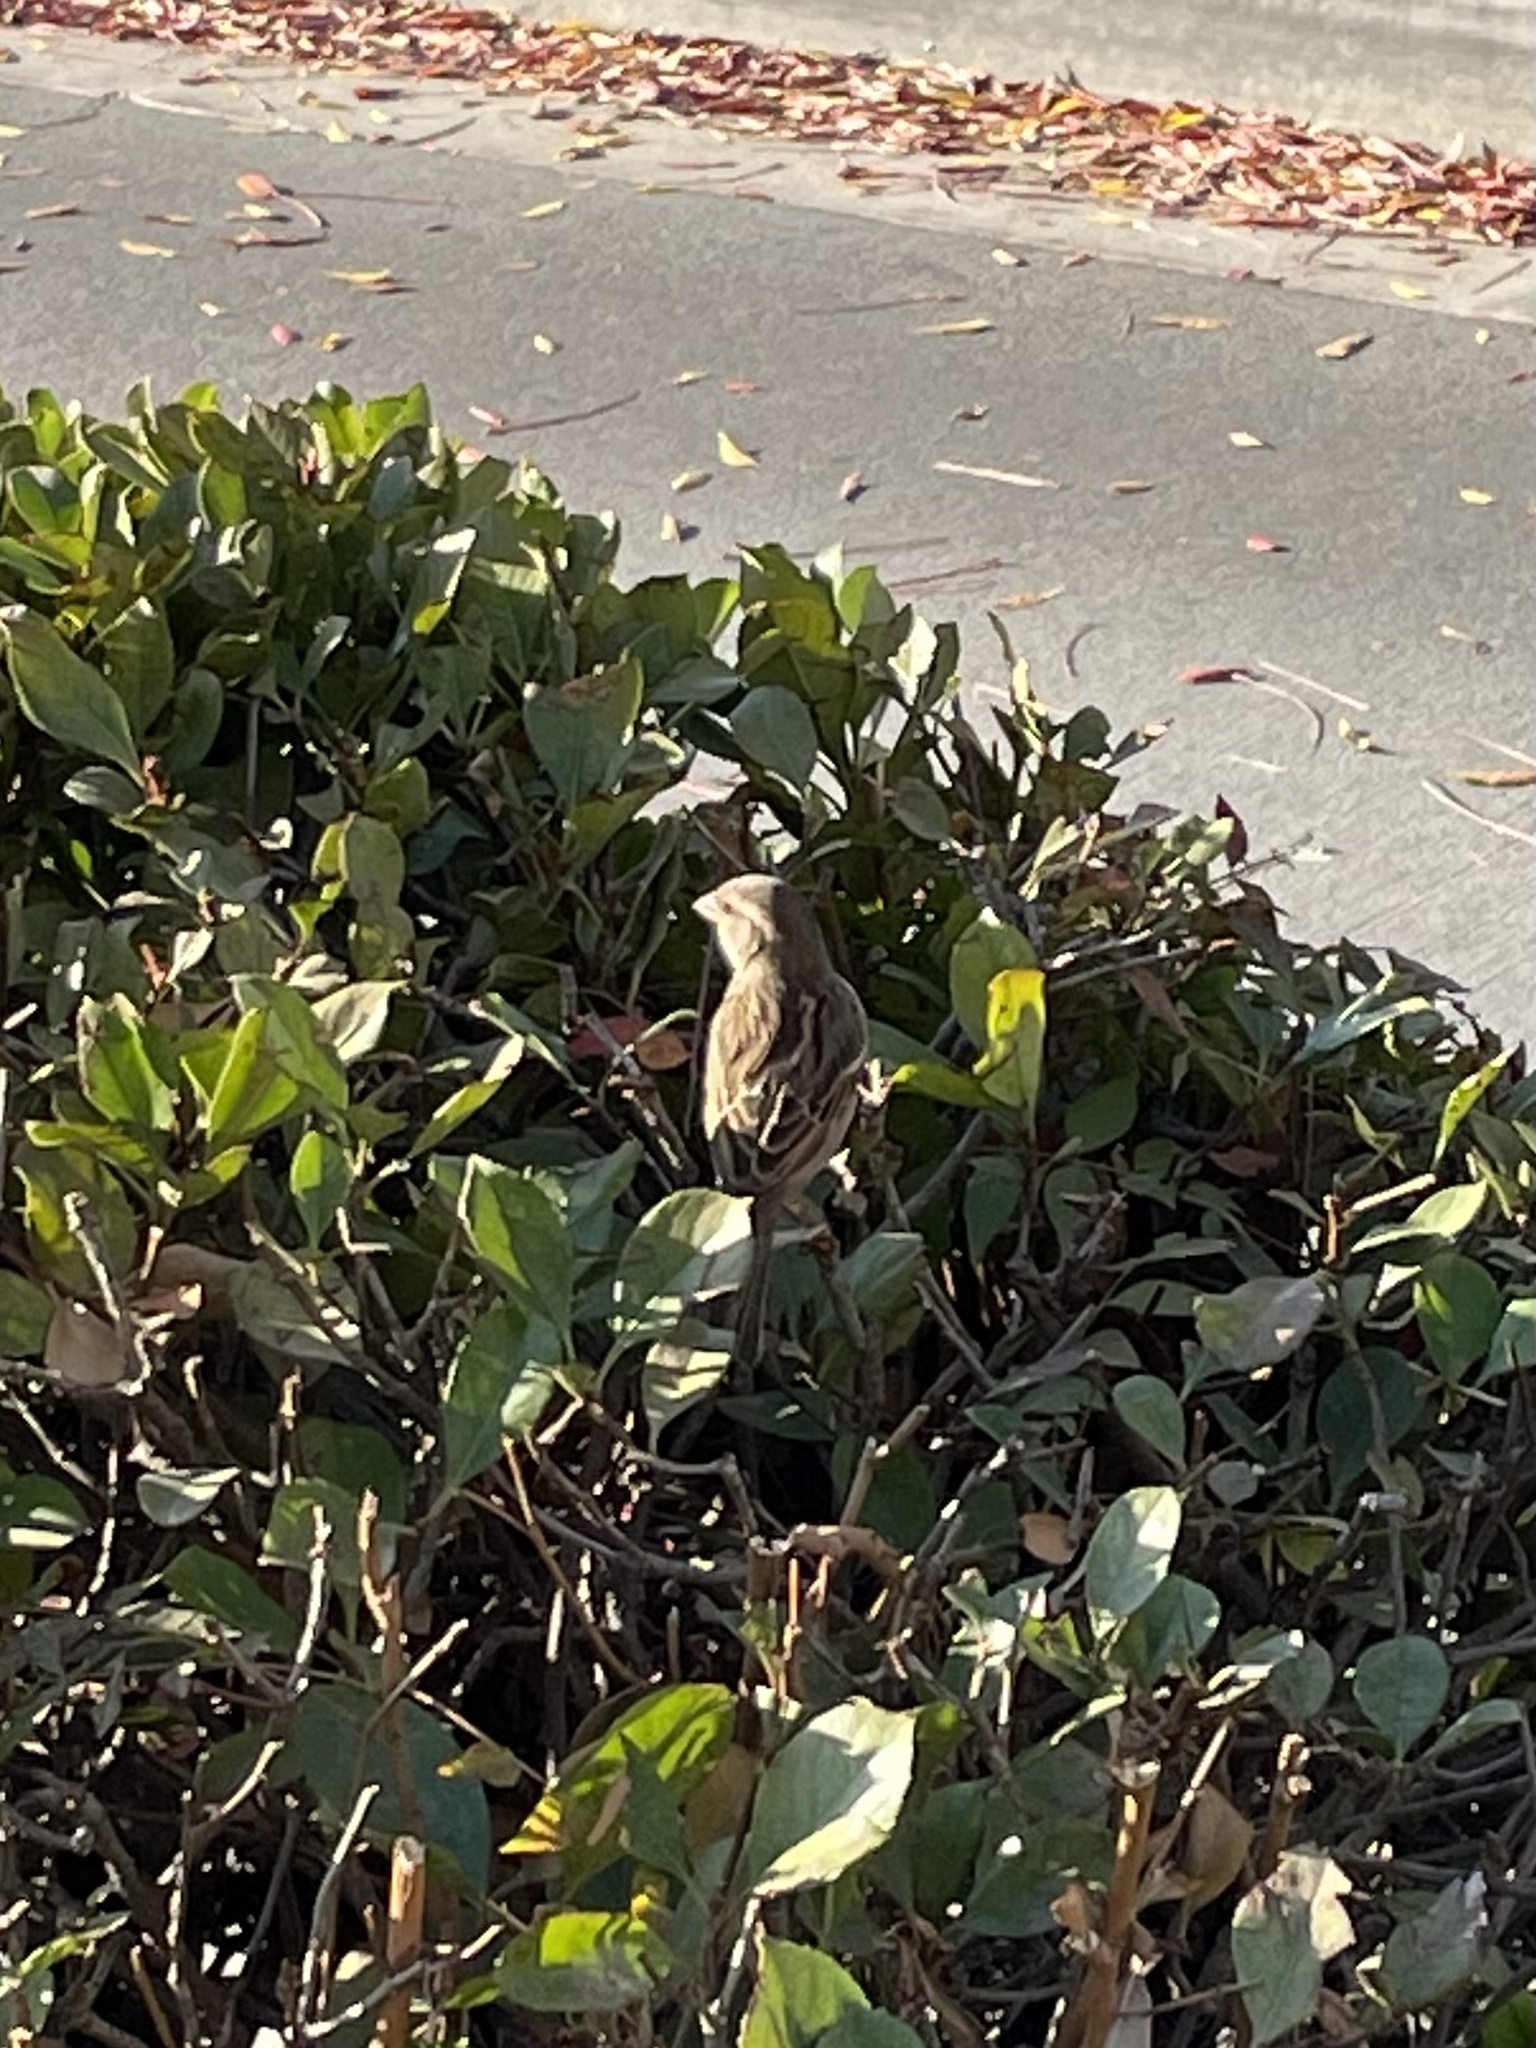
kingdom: Animalia
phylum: Chordata
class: Aves
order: Passeriformes
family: Passeridae
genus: Passer
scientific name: Passer domesticus
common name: House sparrow
